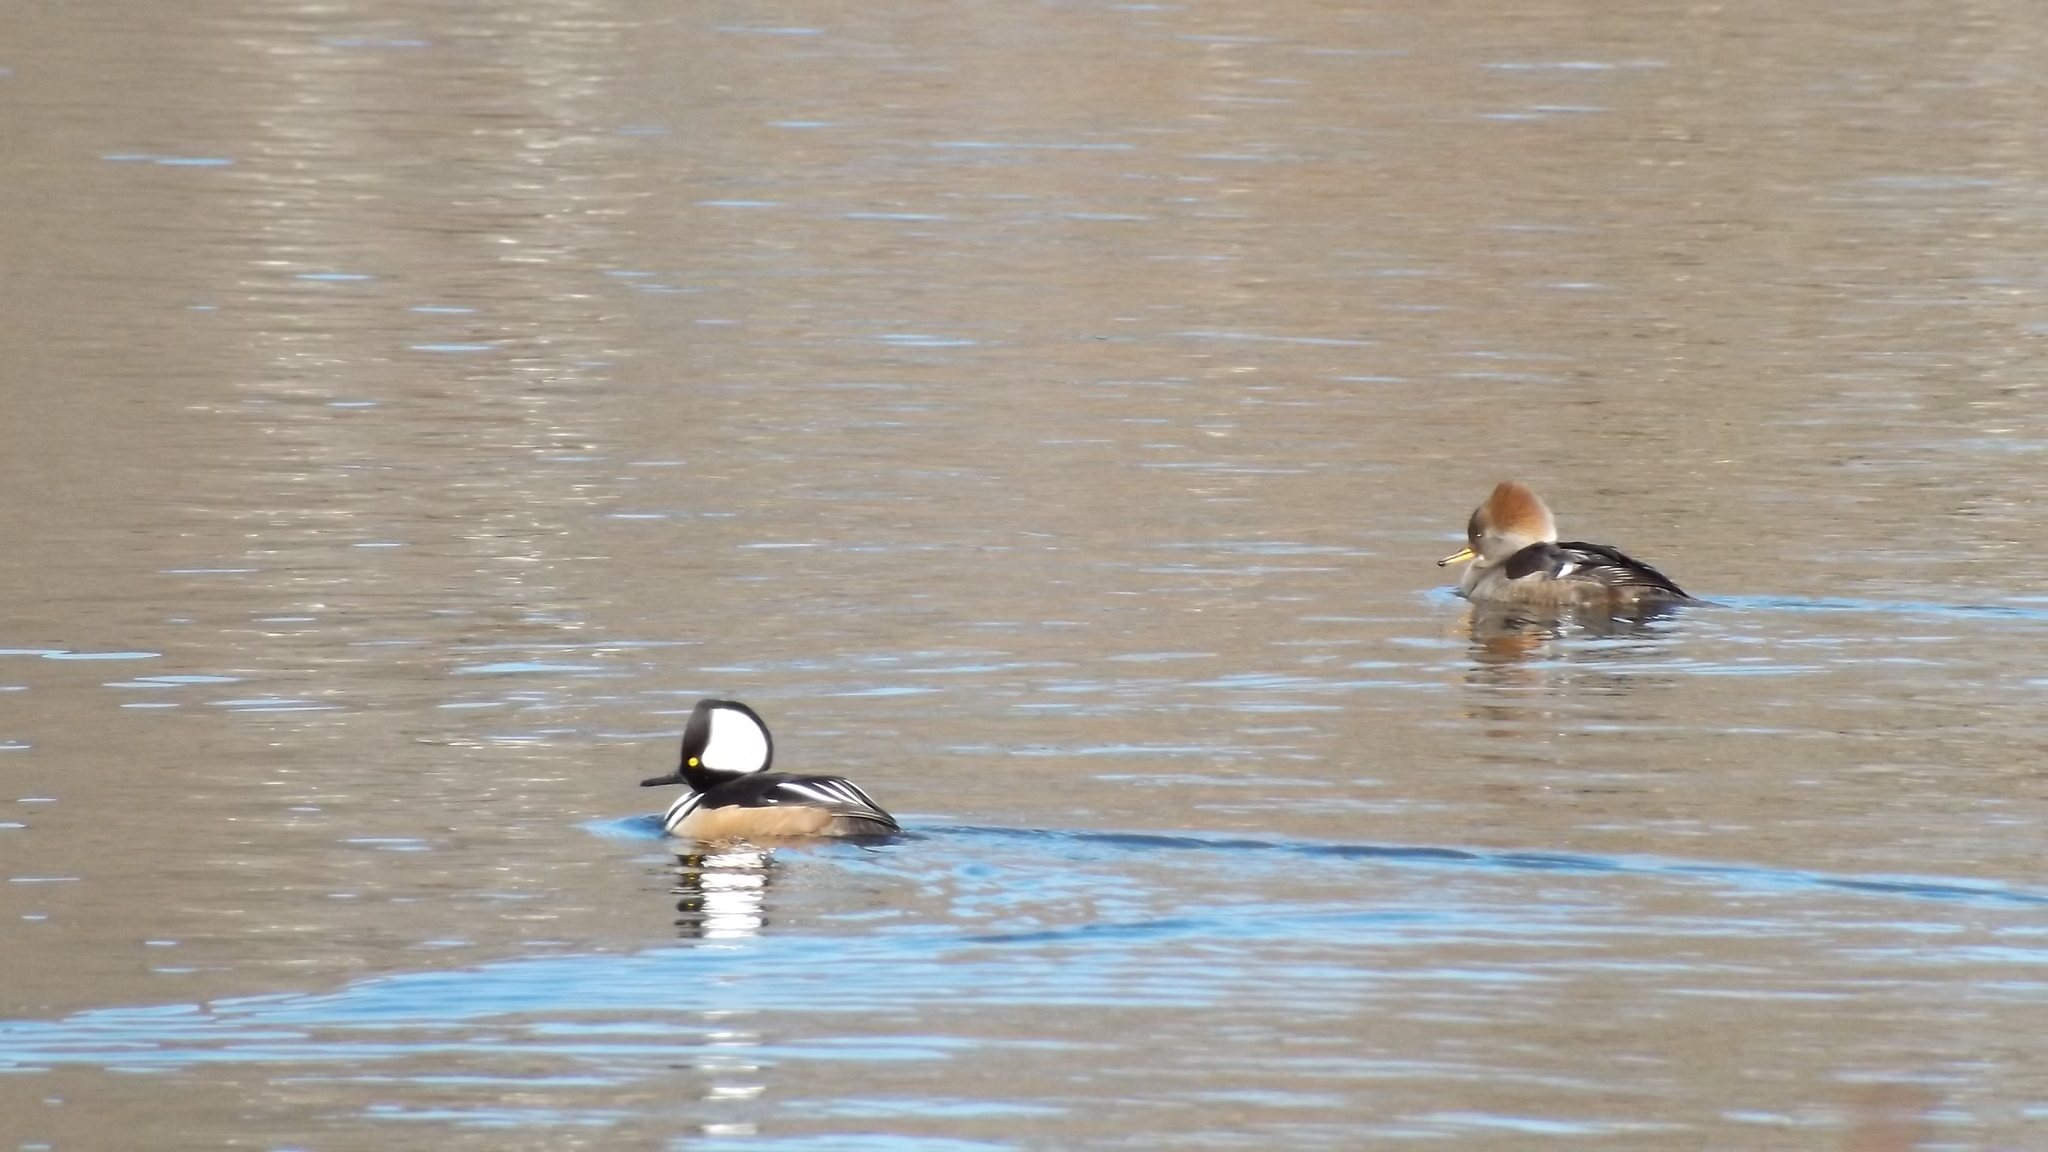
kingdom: Animalia
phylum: Chordata
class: Aves
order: Anseriformes
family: Anatidae
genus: Lophodytes
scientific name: Lophodytes cucullatus
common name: Hooded merganser
